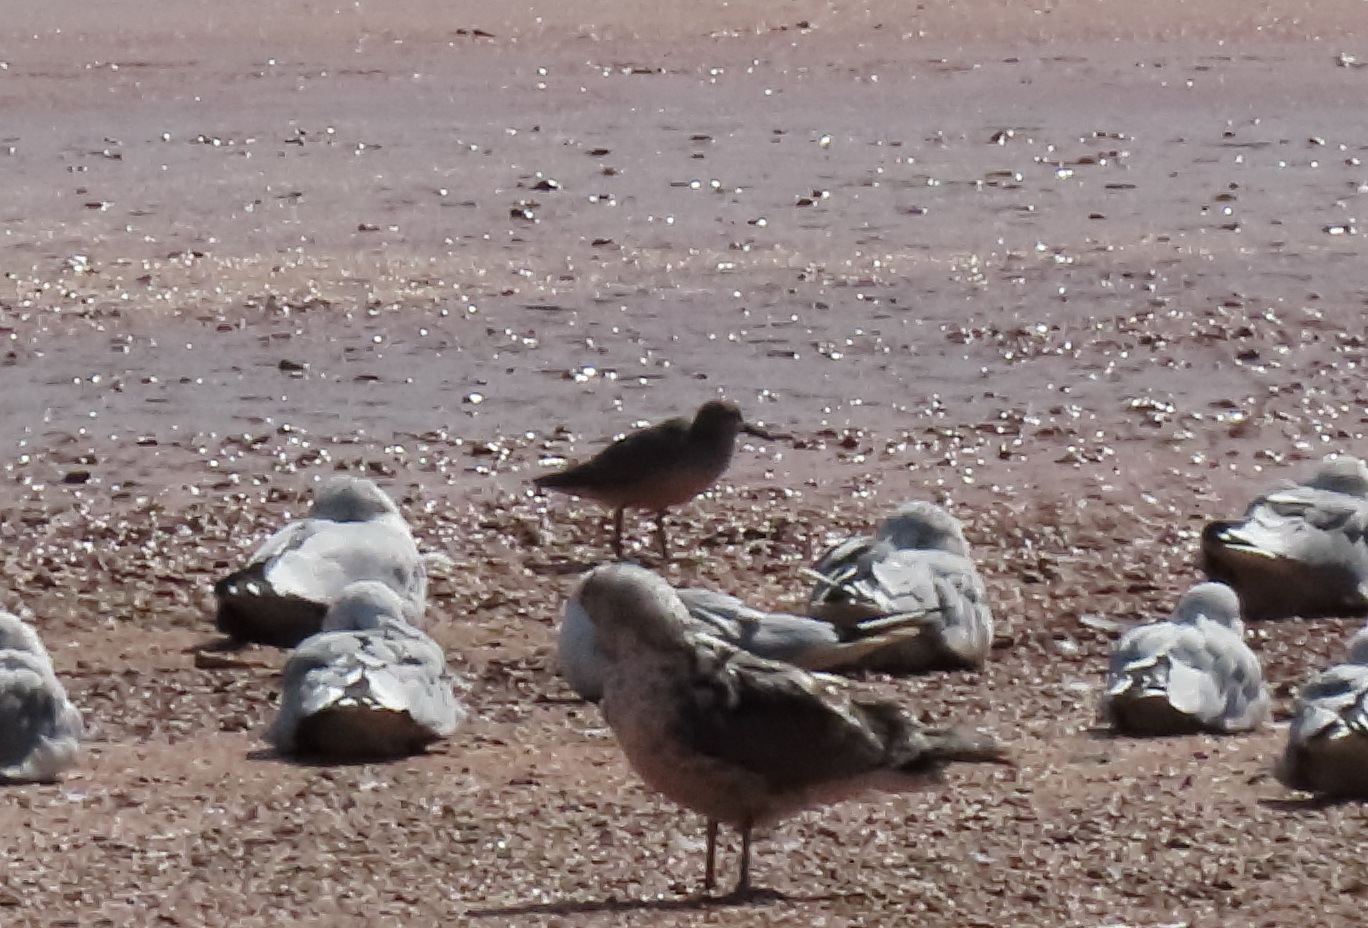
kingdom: Animalia
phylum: Chordata
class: Aves
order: Charadriiformes
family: Scolopacidae
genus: Calidris
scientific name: Calidris canutus
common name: Red knot
